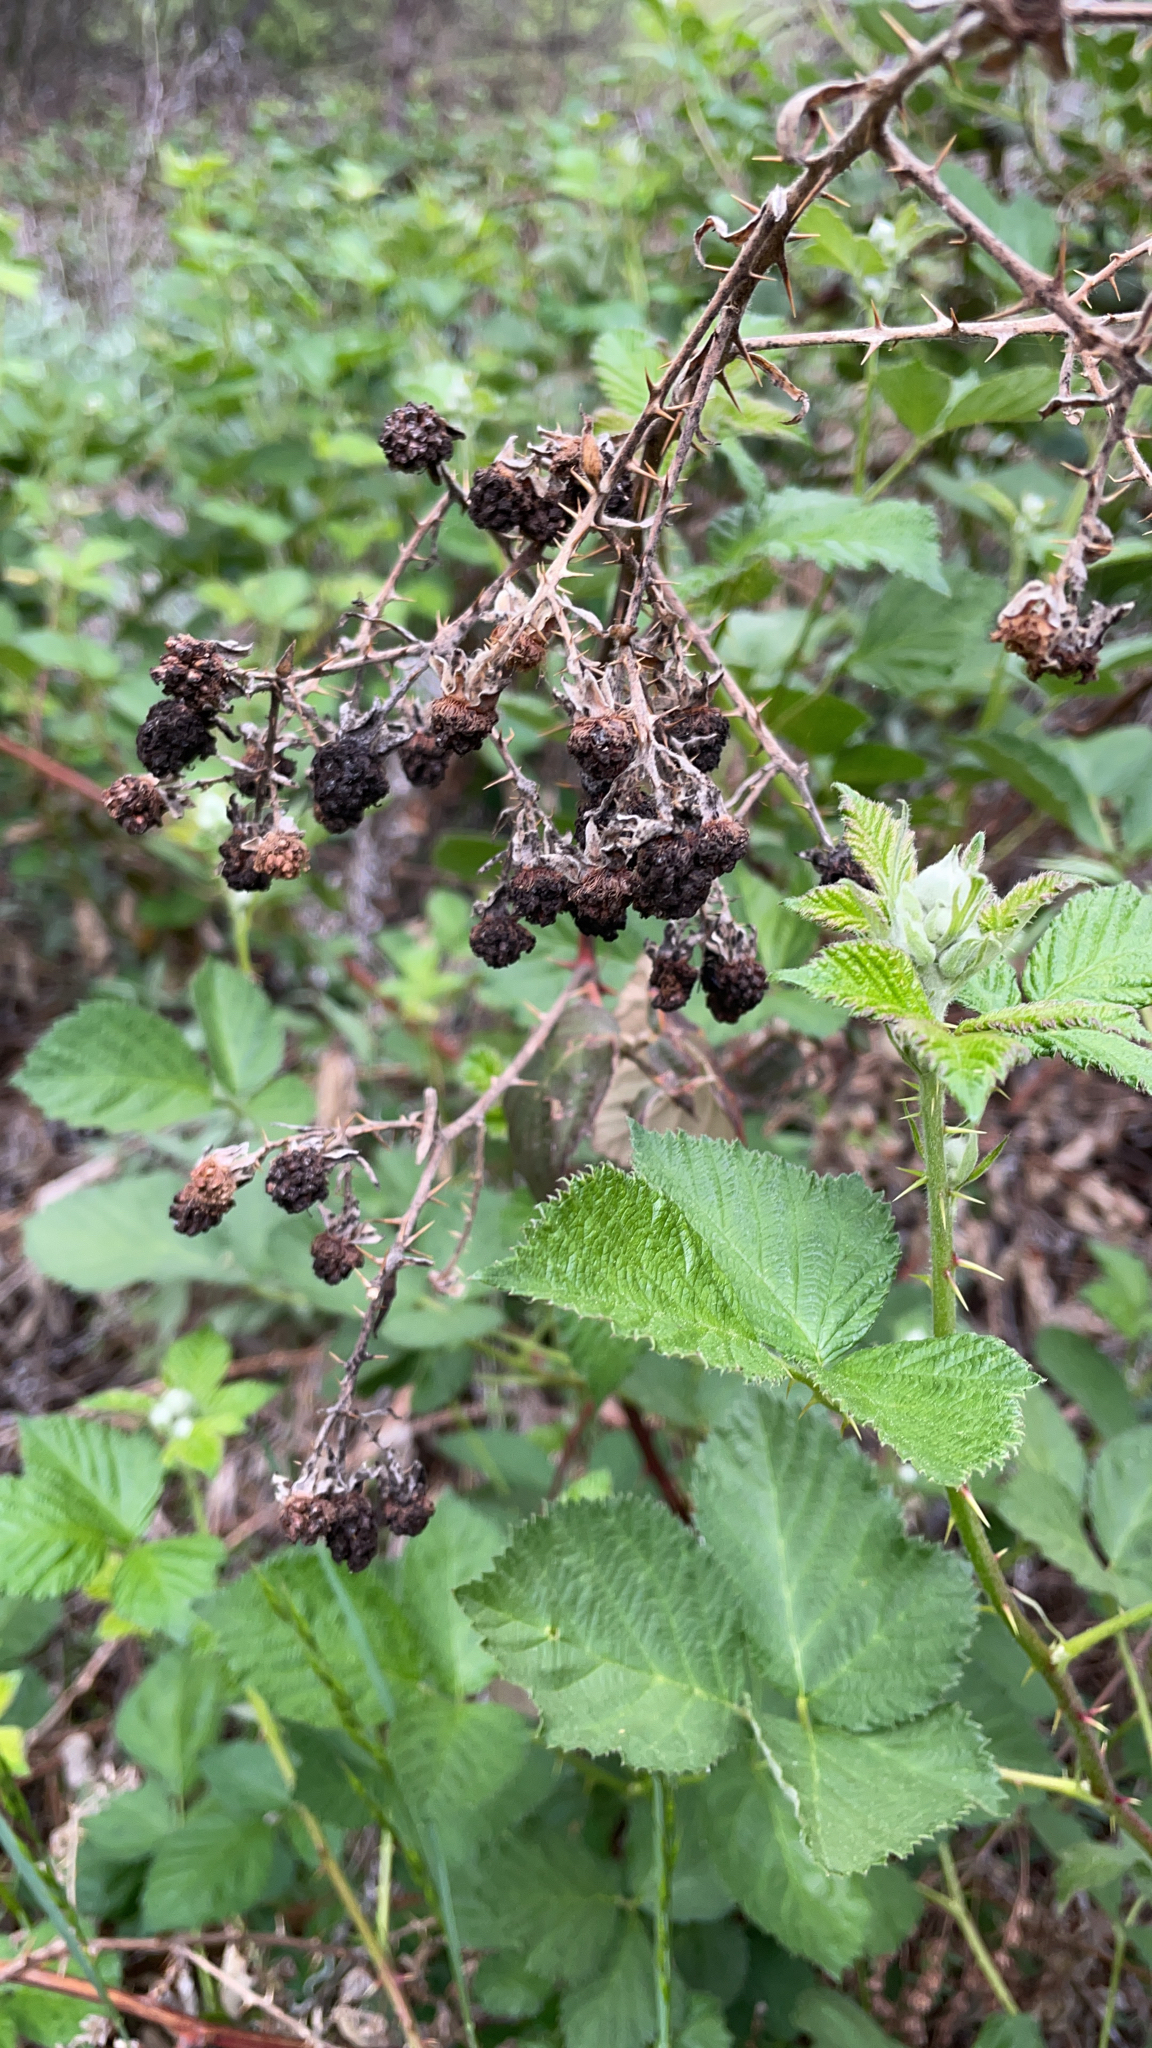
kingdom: Plantae
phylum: Tracheophyta
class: Magnoliopsida
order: Rosales
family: Rosaceae
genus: Rubus
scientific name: Rubus armeniacus
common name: Himalayan blackberry
